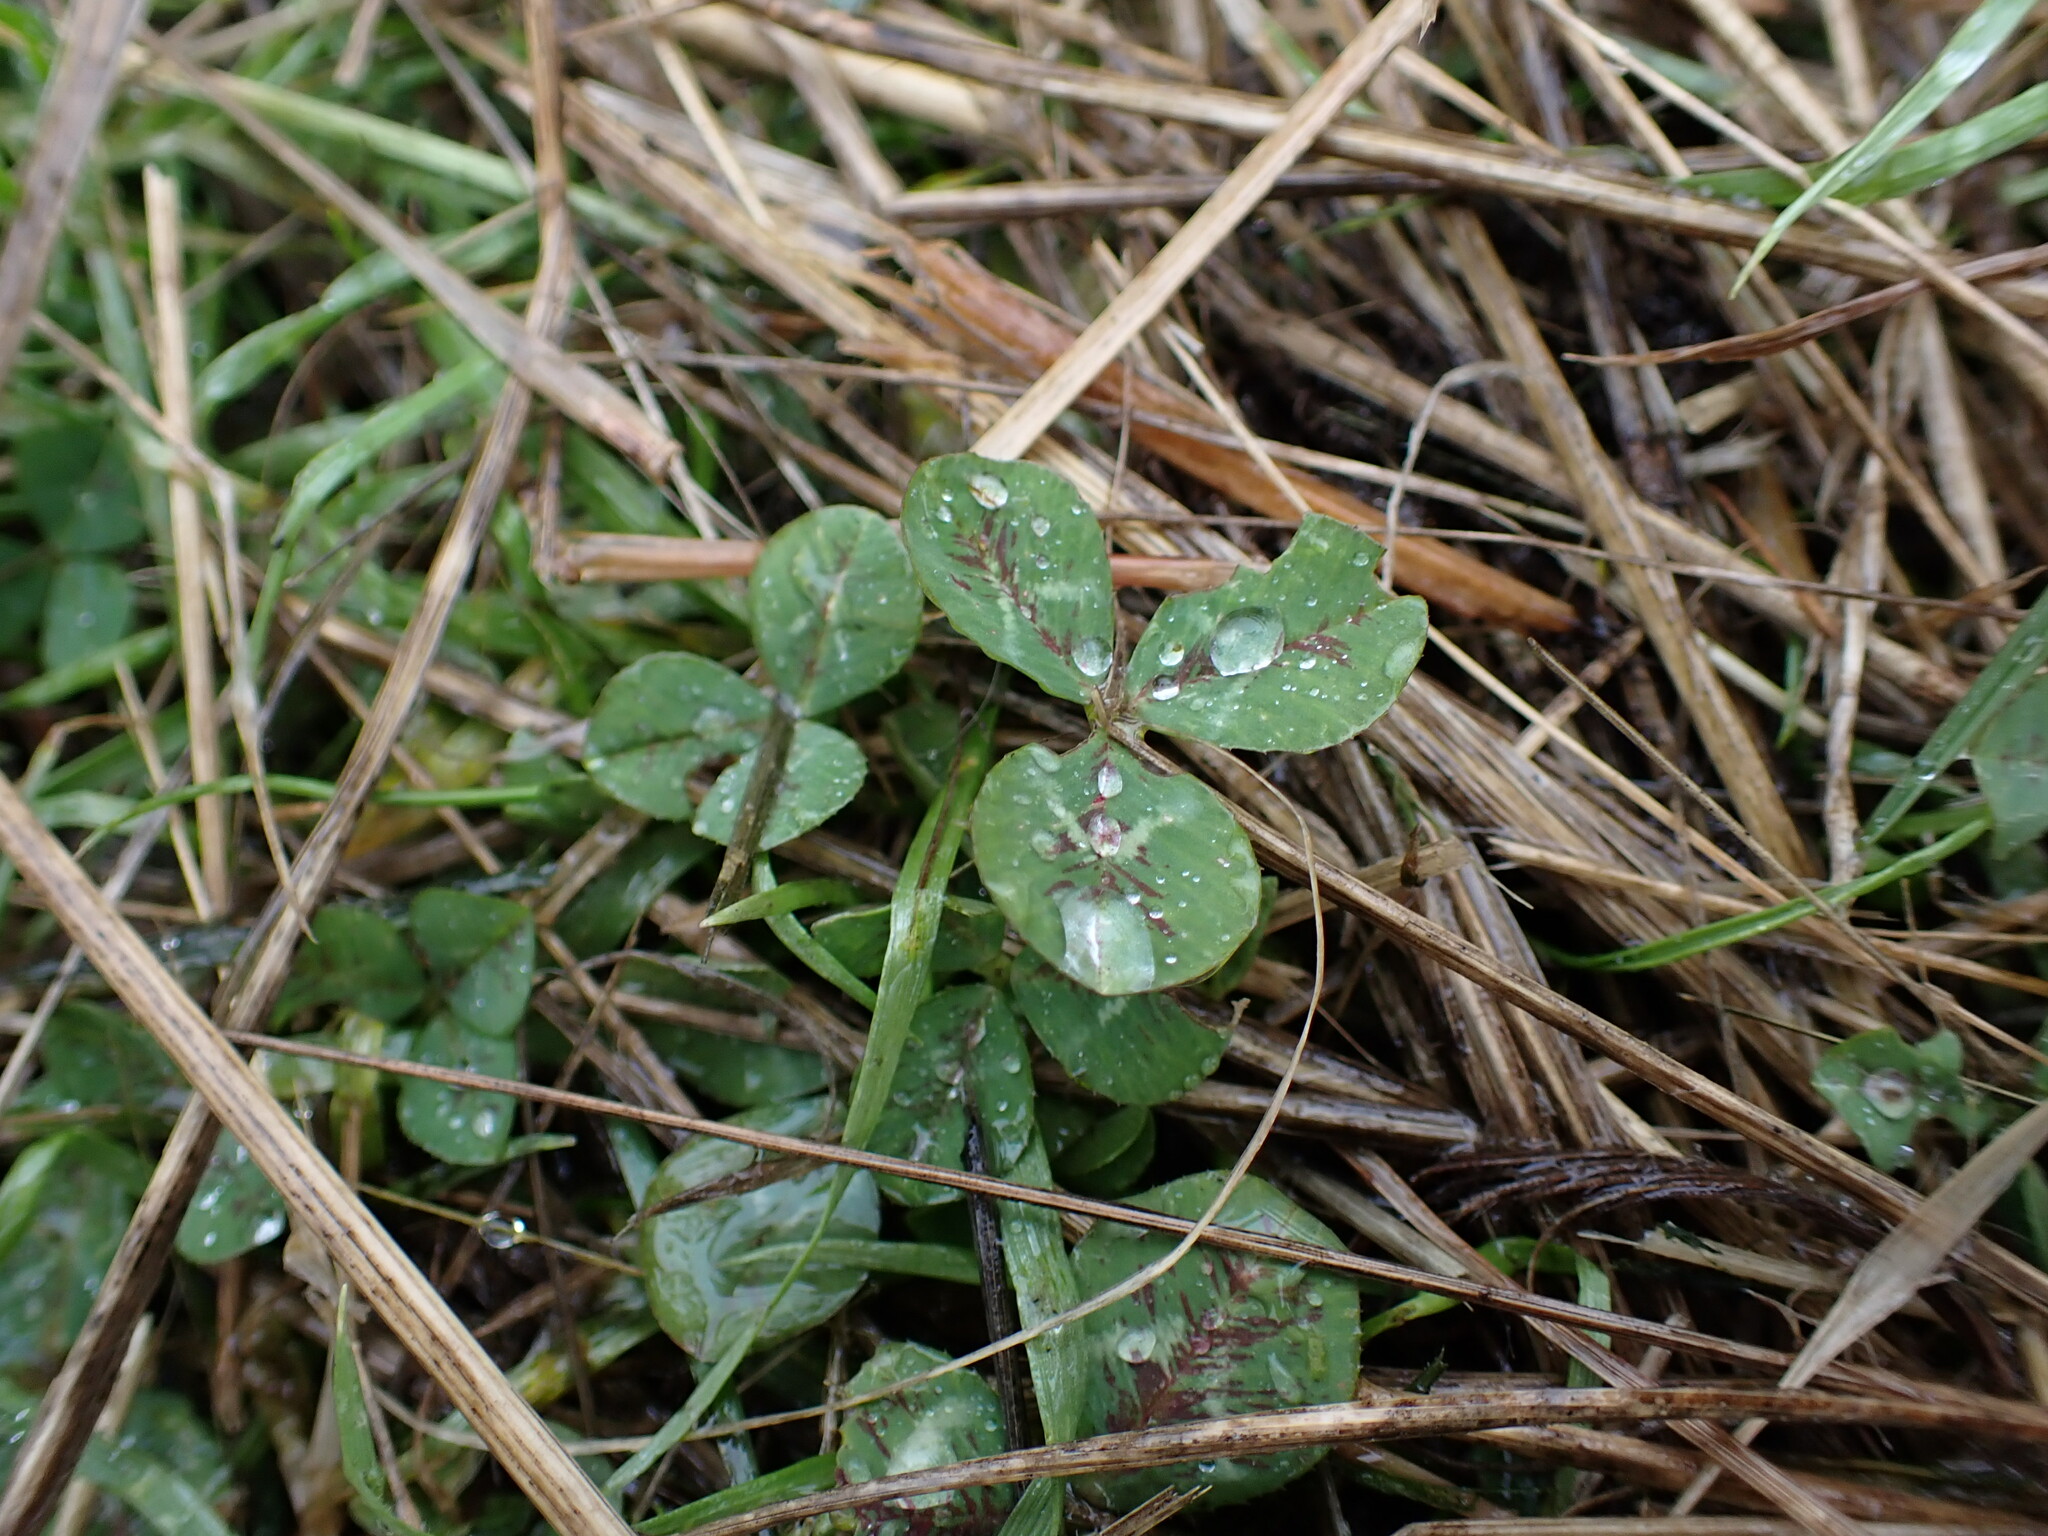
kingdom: Plantae
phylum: Tracheophyta
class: Magnoliopsida
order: Fabales
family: Fabaceae
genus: Trifolium
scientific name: Trifolium repens
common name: White clover
